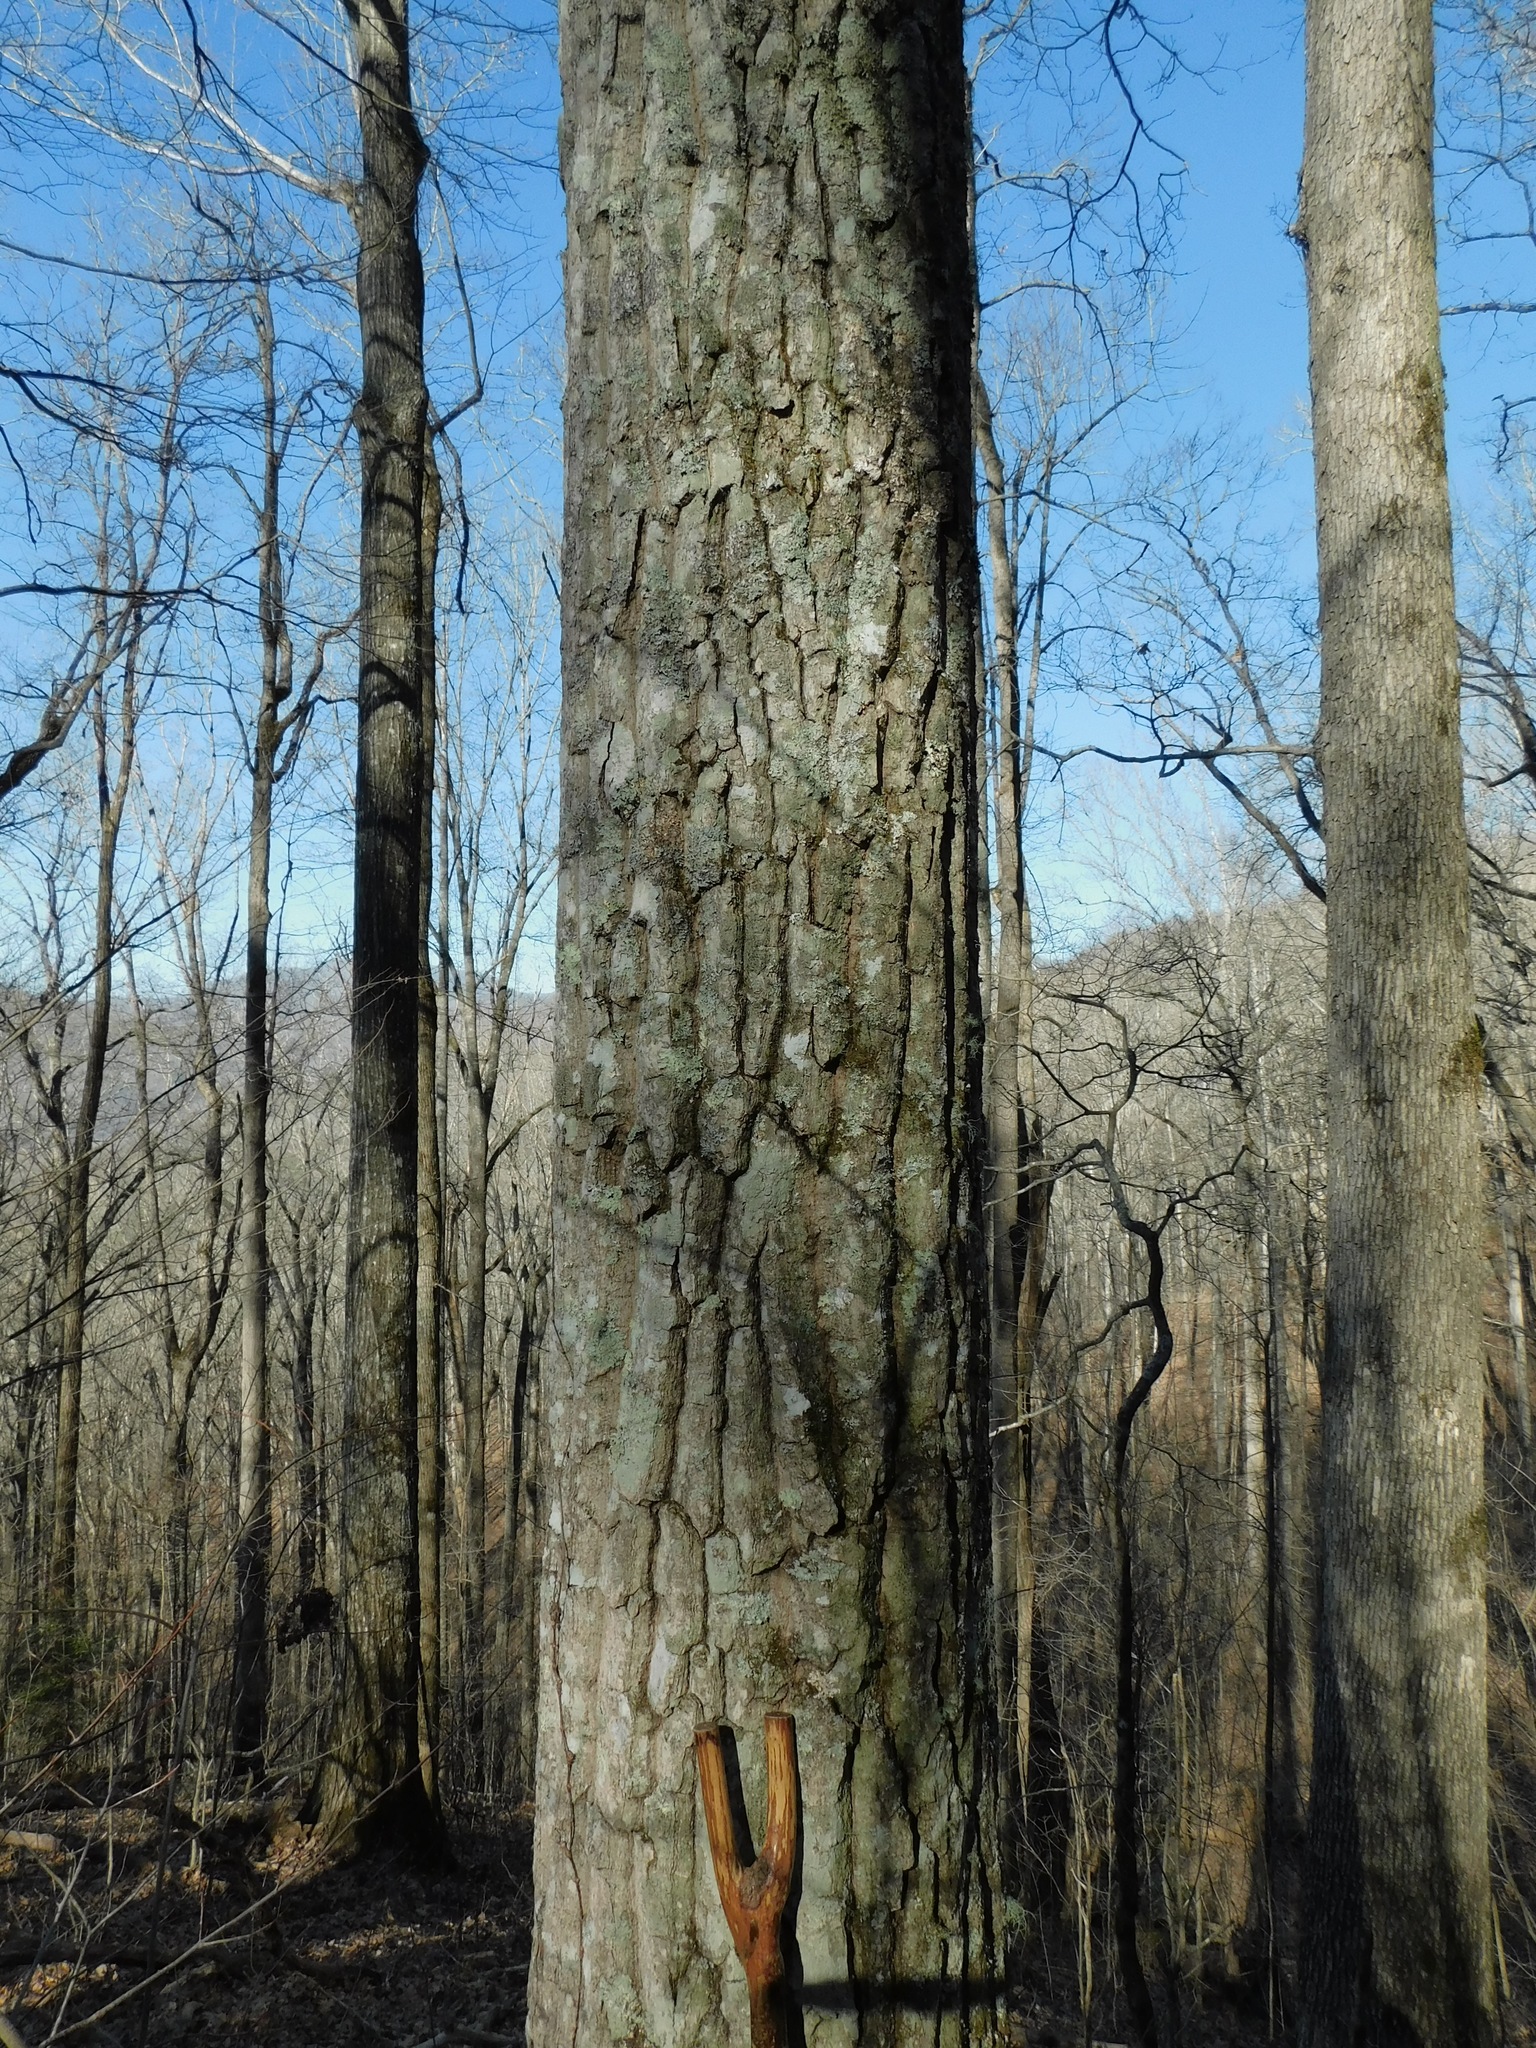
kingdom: Plantae
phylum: Tracheophyta
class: Magnoliopsida
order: Fagales
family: Fagaceae
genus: Quercus
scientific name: Quercus velutina
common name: Black oak
